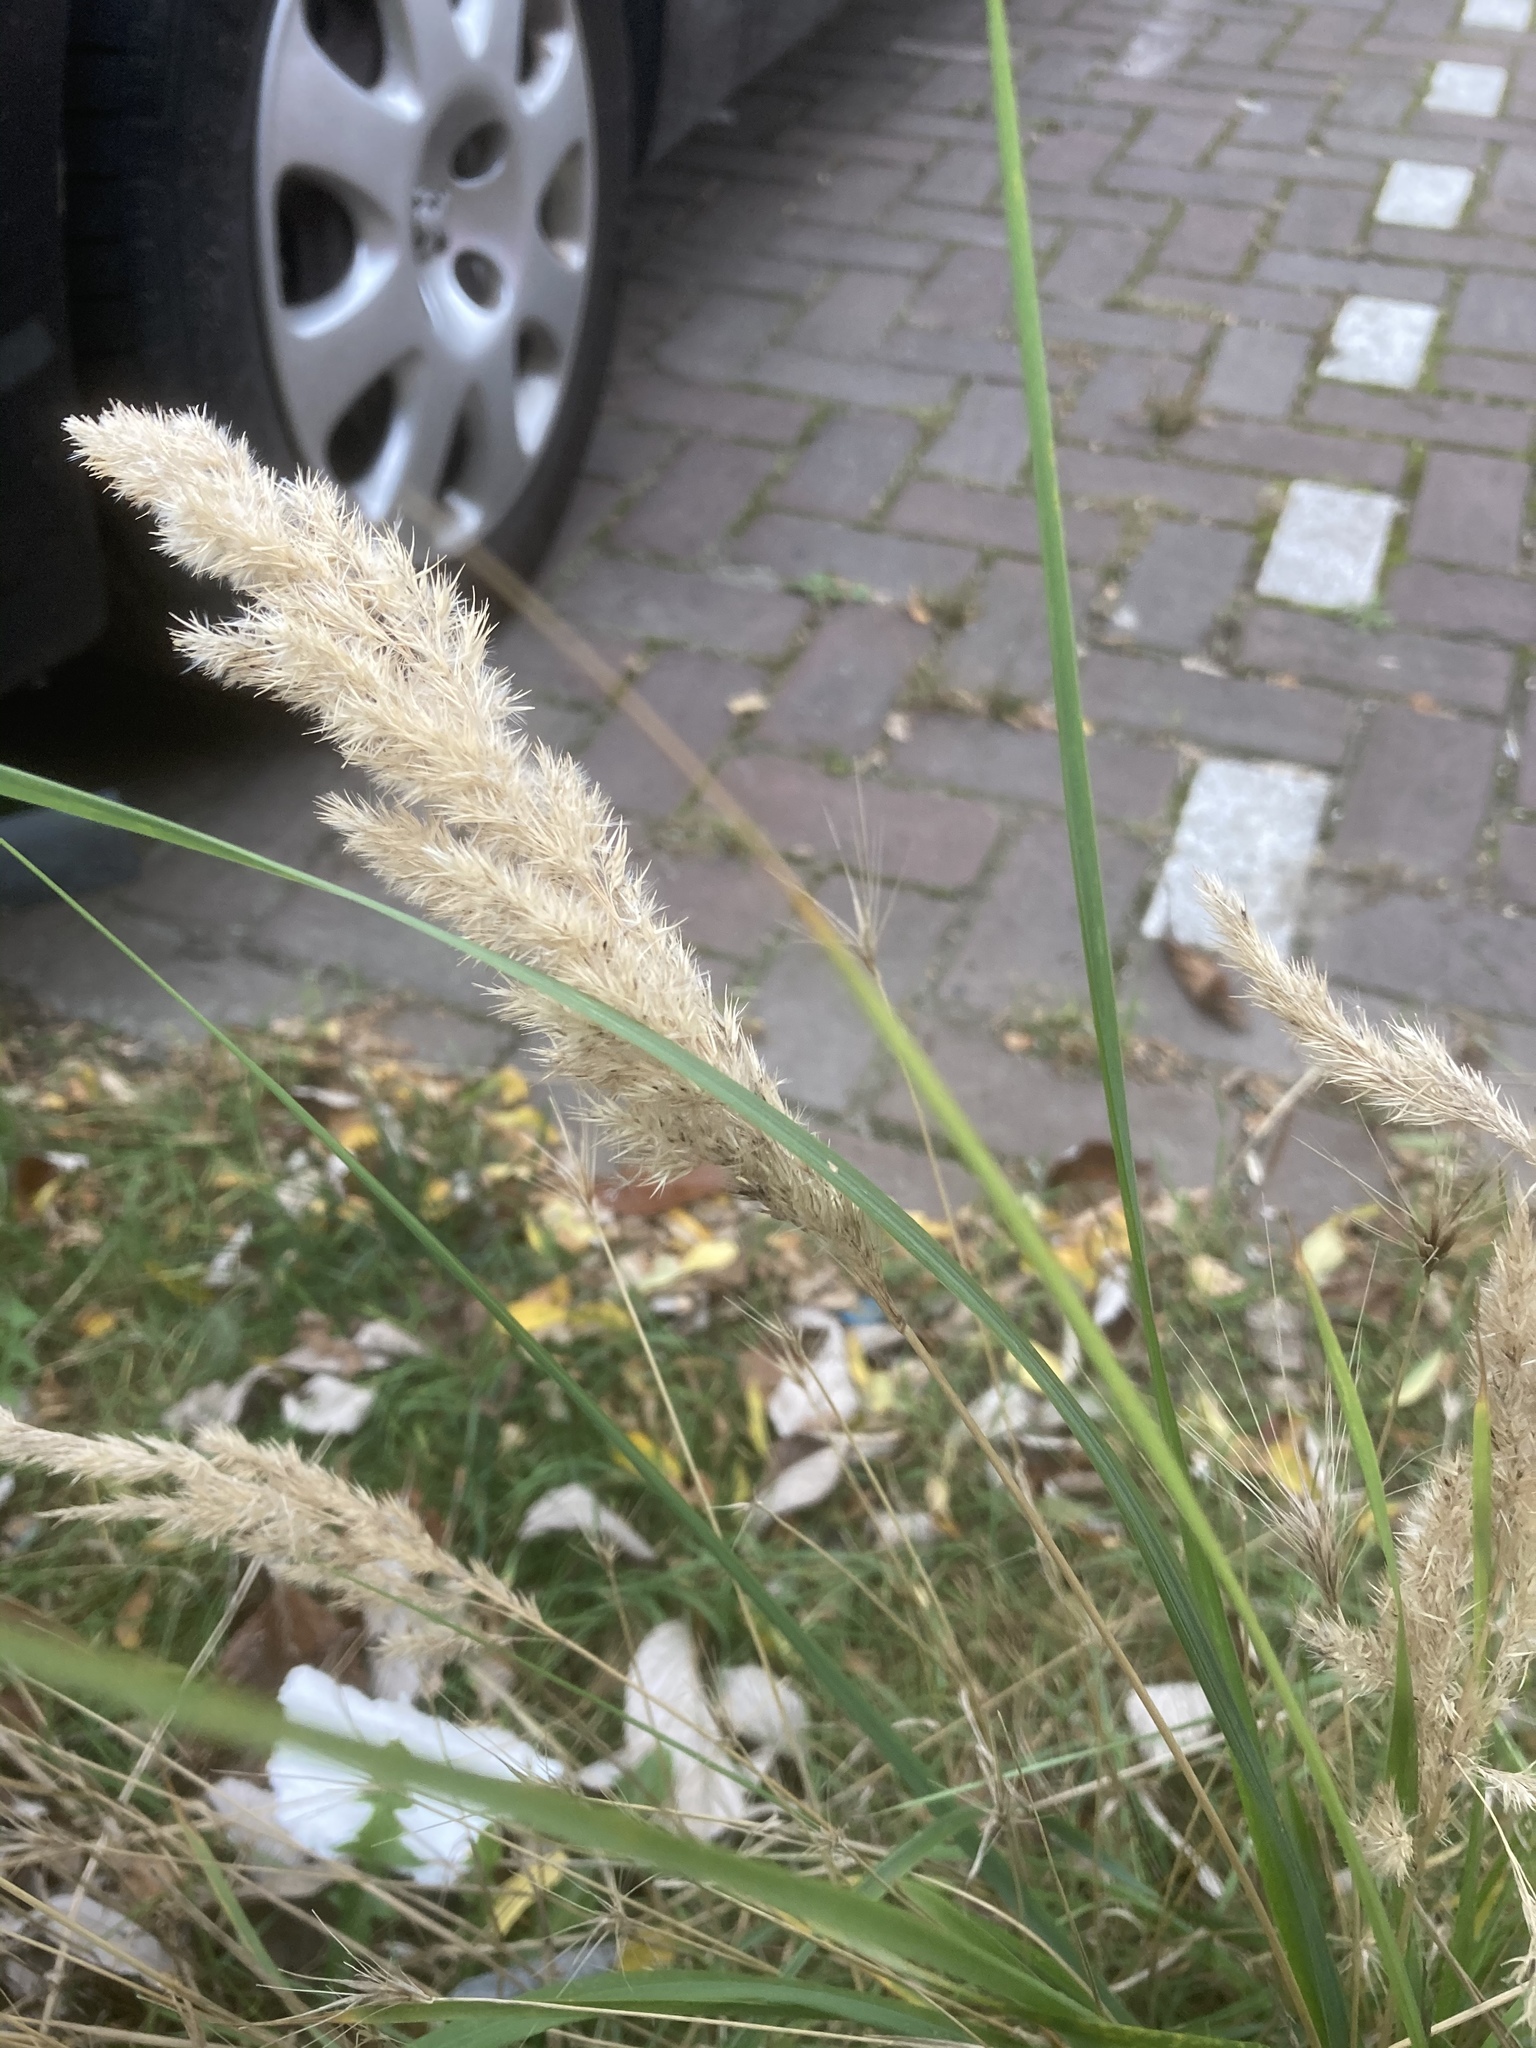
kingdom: Plantae
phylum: Tracheophyta
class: Liliopsida
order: Poales
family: Poaceae
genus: Calamagrostis
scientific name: Calamagrostis epigejos
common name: Wood small-reed
